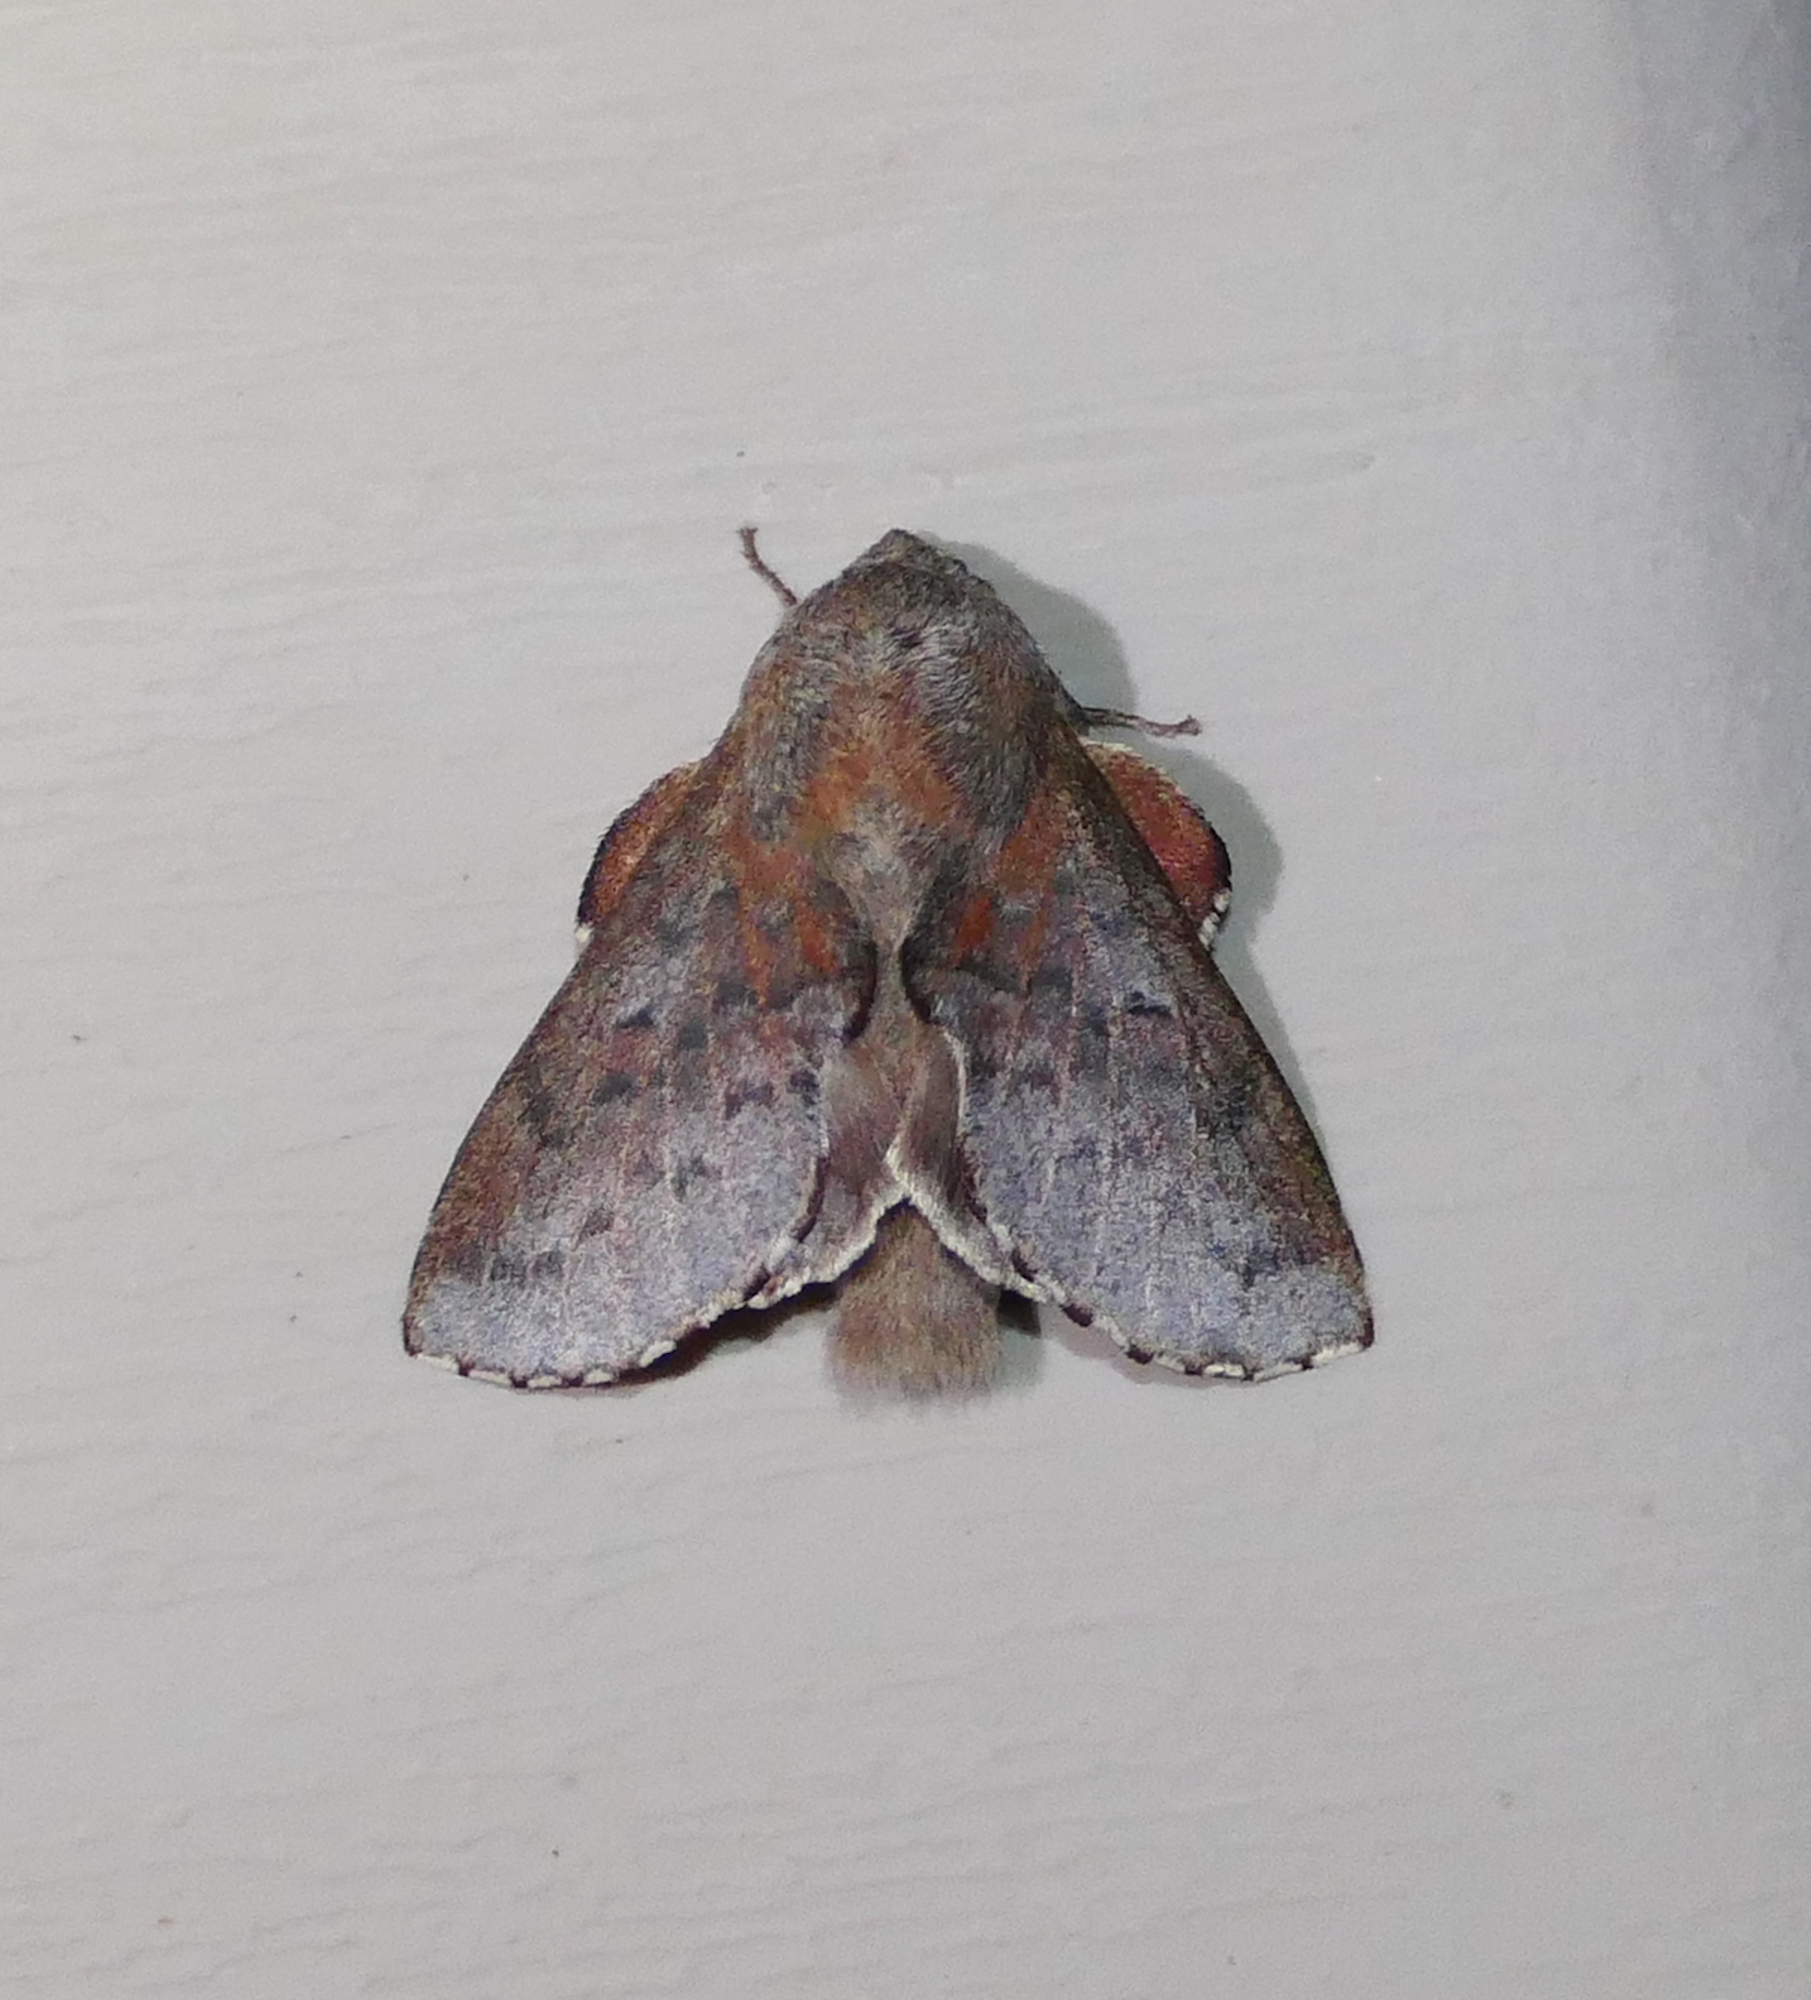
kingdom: Animalia
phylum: Arthropoda
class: Insecta
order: Lepidoptera
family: Lasiocampidae
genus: Phyllodesma
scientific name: Phyllodesma americana
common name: American lappet moth
